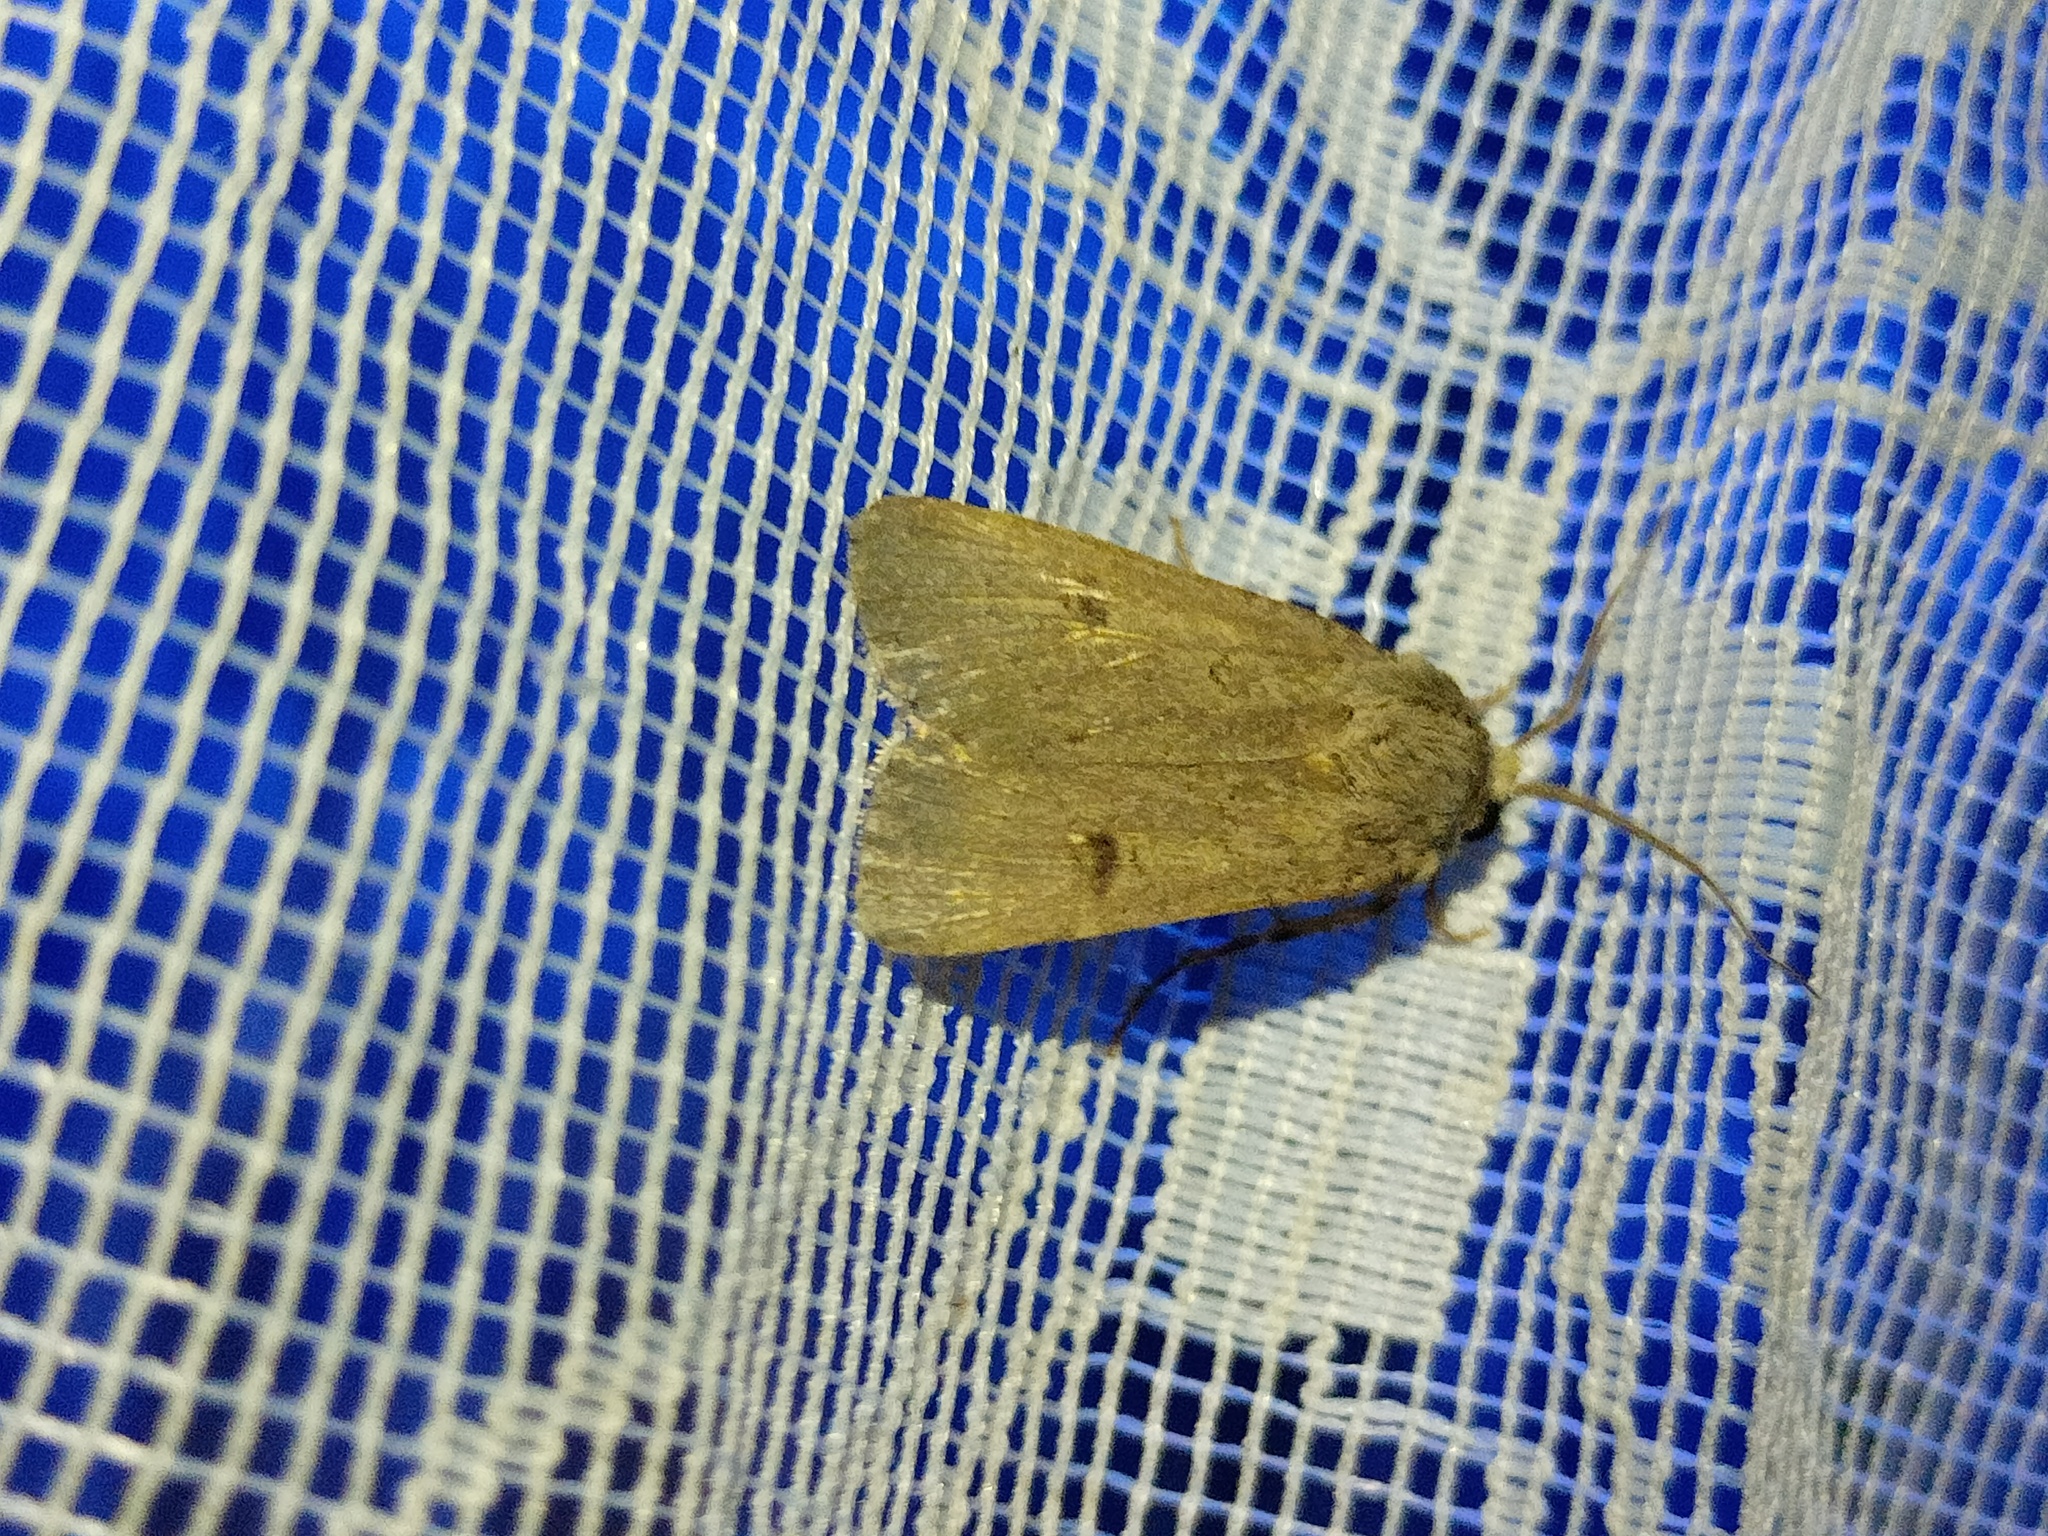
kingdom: Animalia
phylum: Arthropoda
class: Insecta
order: Lepidoptera
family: Noctuidae
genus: Agrotis
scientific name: Agrotis trux
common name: Crescent dart
